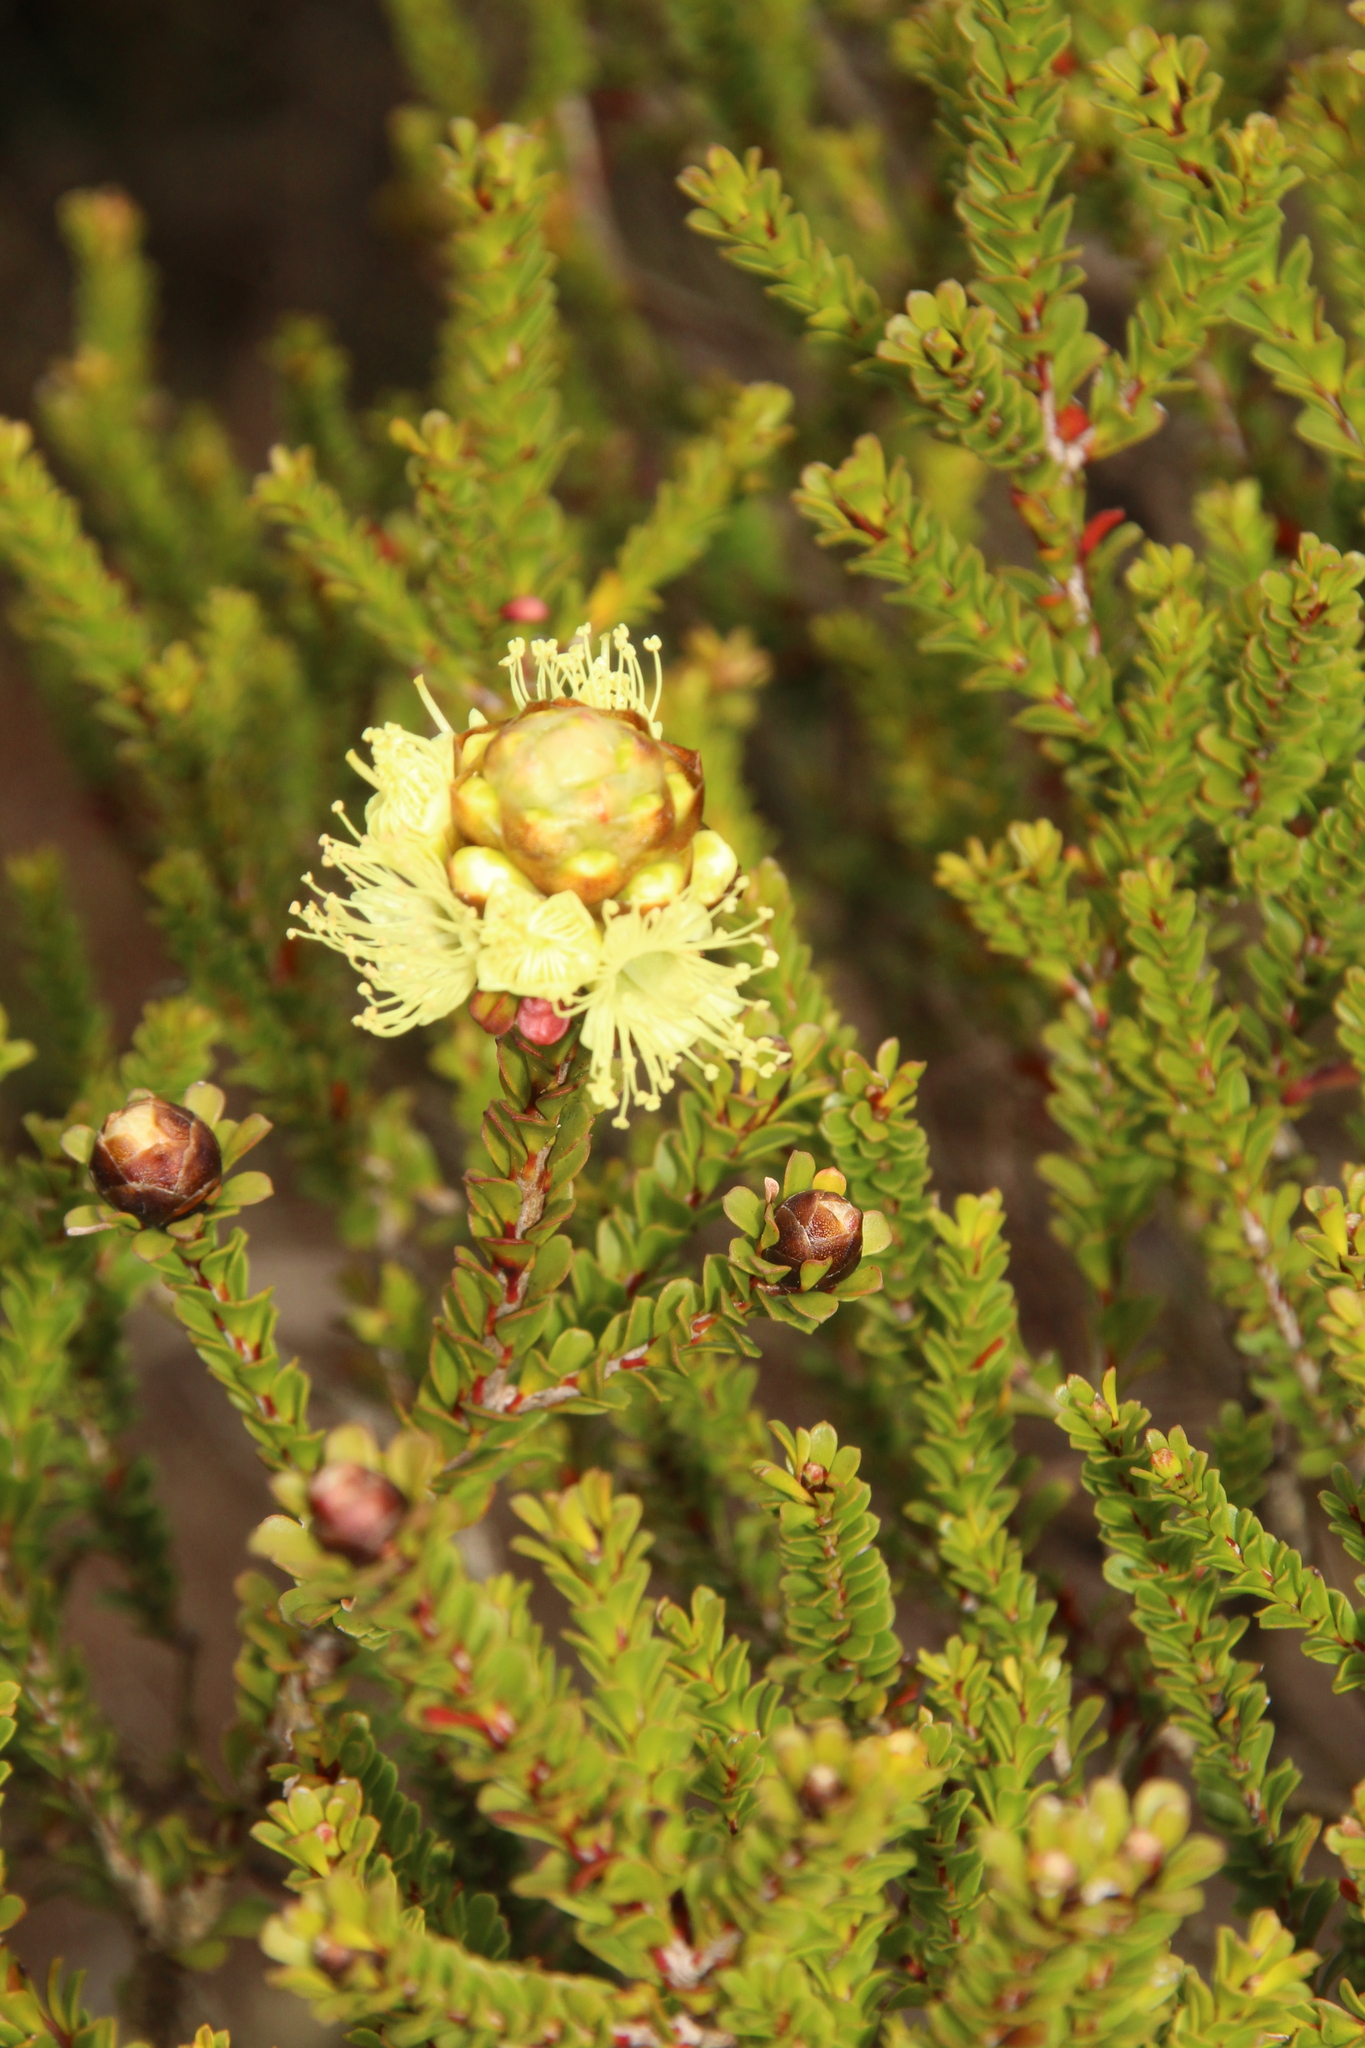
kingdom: Plantae
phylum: Tracheophyta
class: Magnoliopsida
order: Myrtales
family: Myrtaceae
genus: Kunzea
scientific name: Kunzea montana
